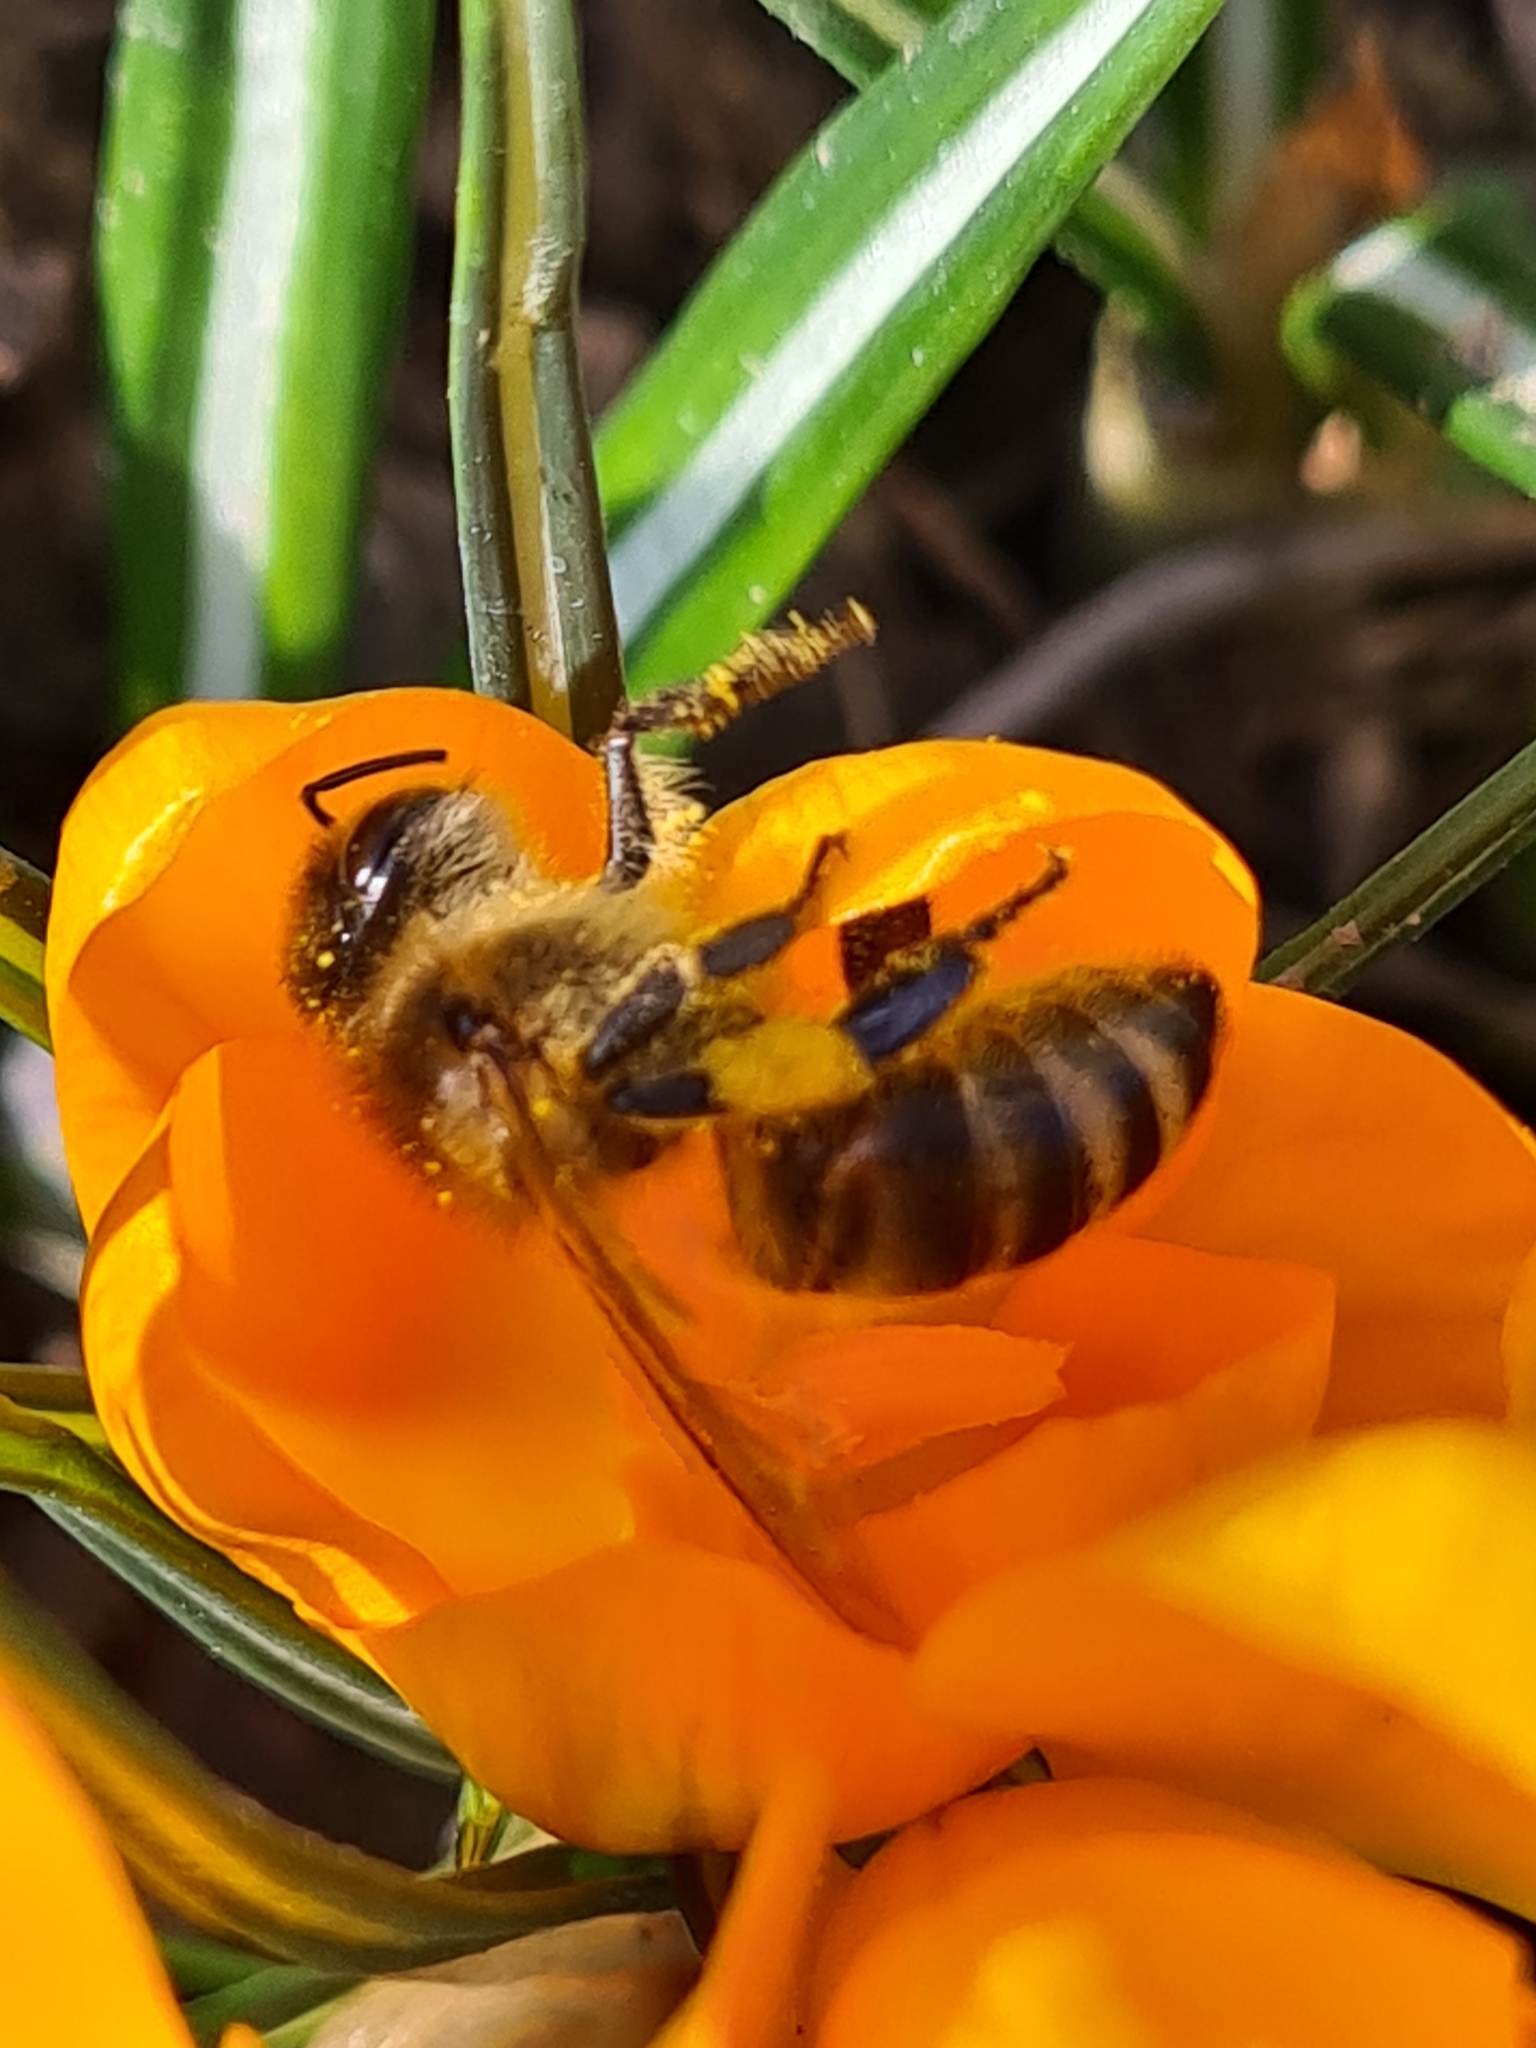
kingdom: Animalia
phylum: Arthropoda
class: Insecta
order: Hymenoptera
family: Apidae
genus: Apis
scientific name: Apis mellifera
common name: Honey bee
